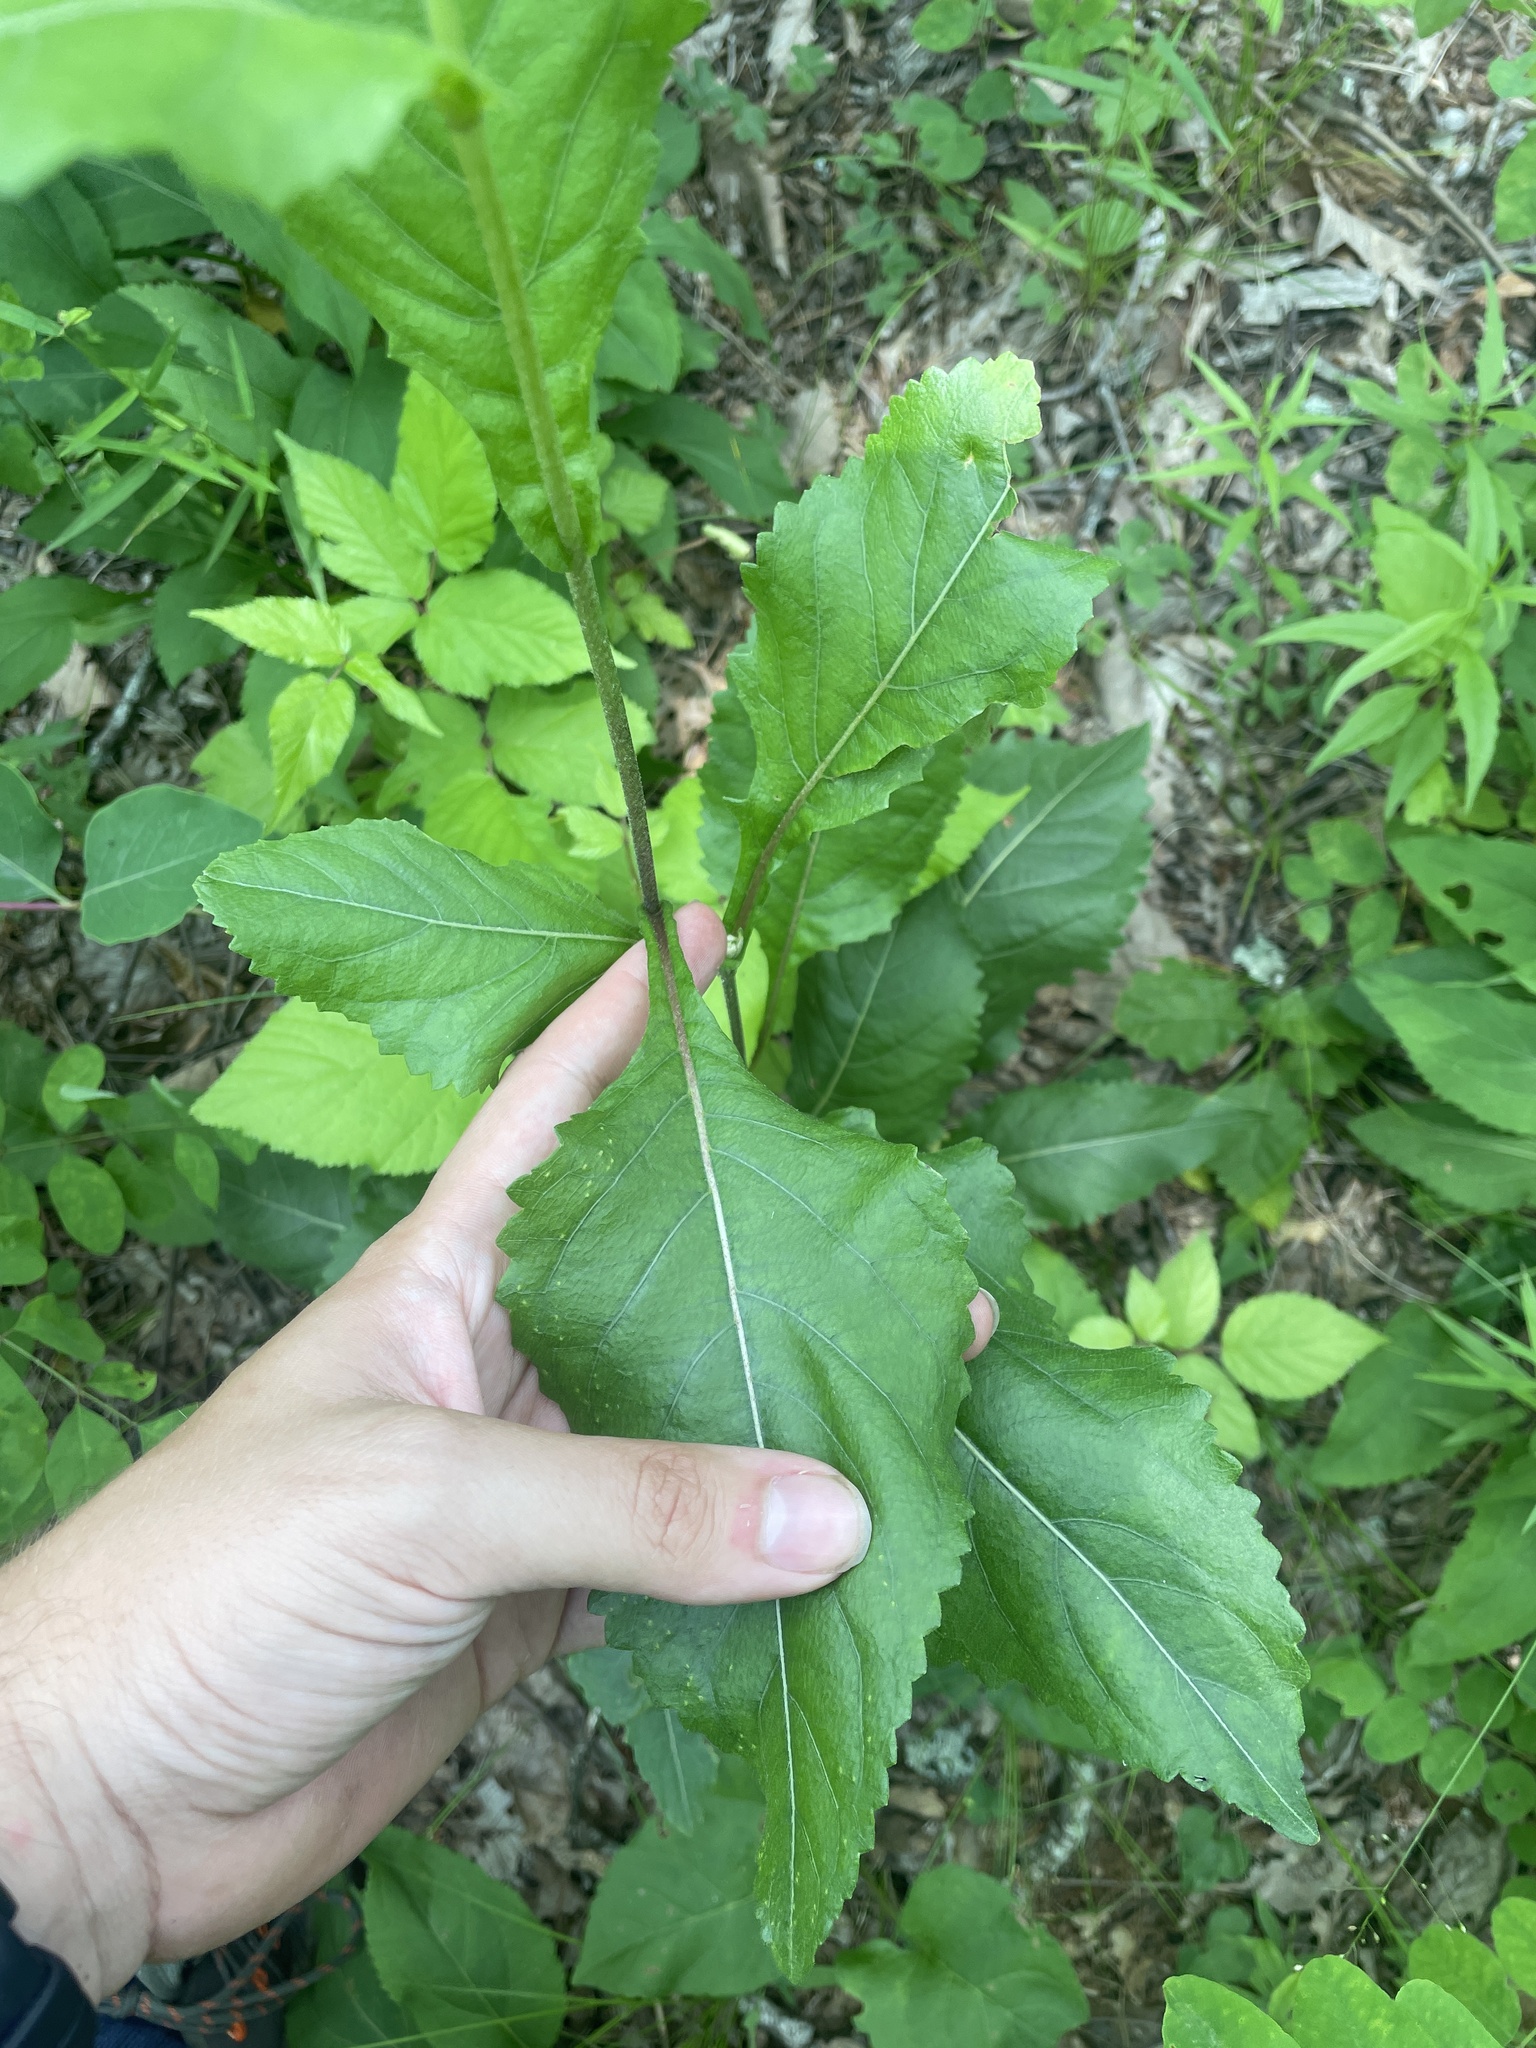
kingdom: Plantae
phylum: Tracheophyta
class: Magnoliopsida
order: Asterales
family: Asteraceae
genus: Parthenium
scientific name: Parthenium integrifolium
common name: American feverfew
